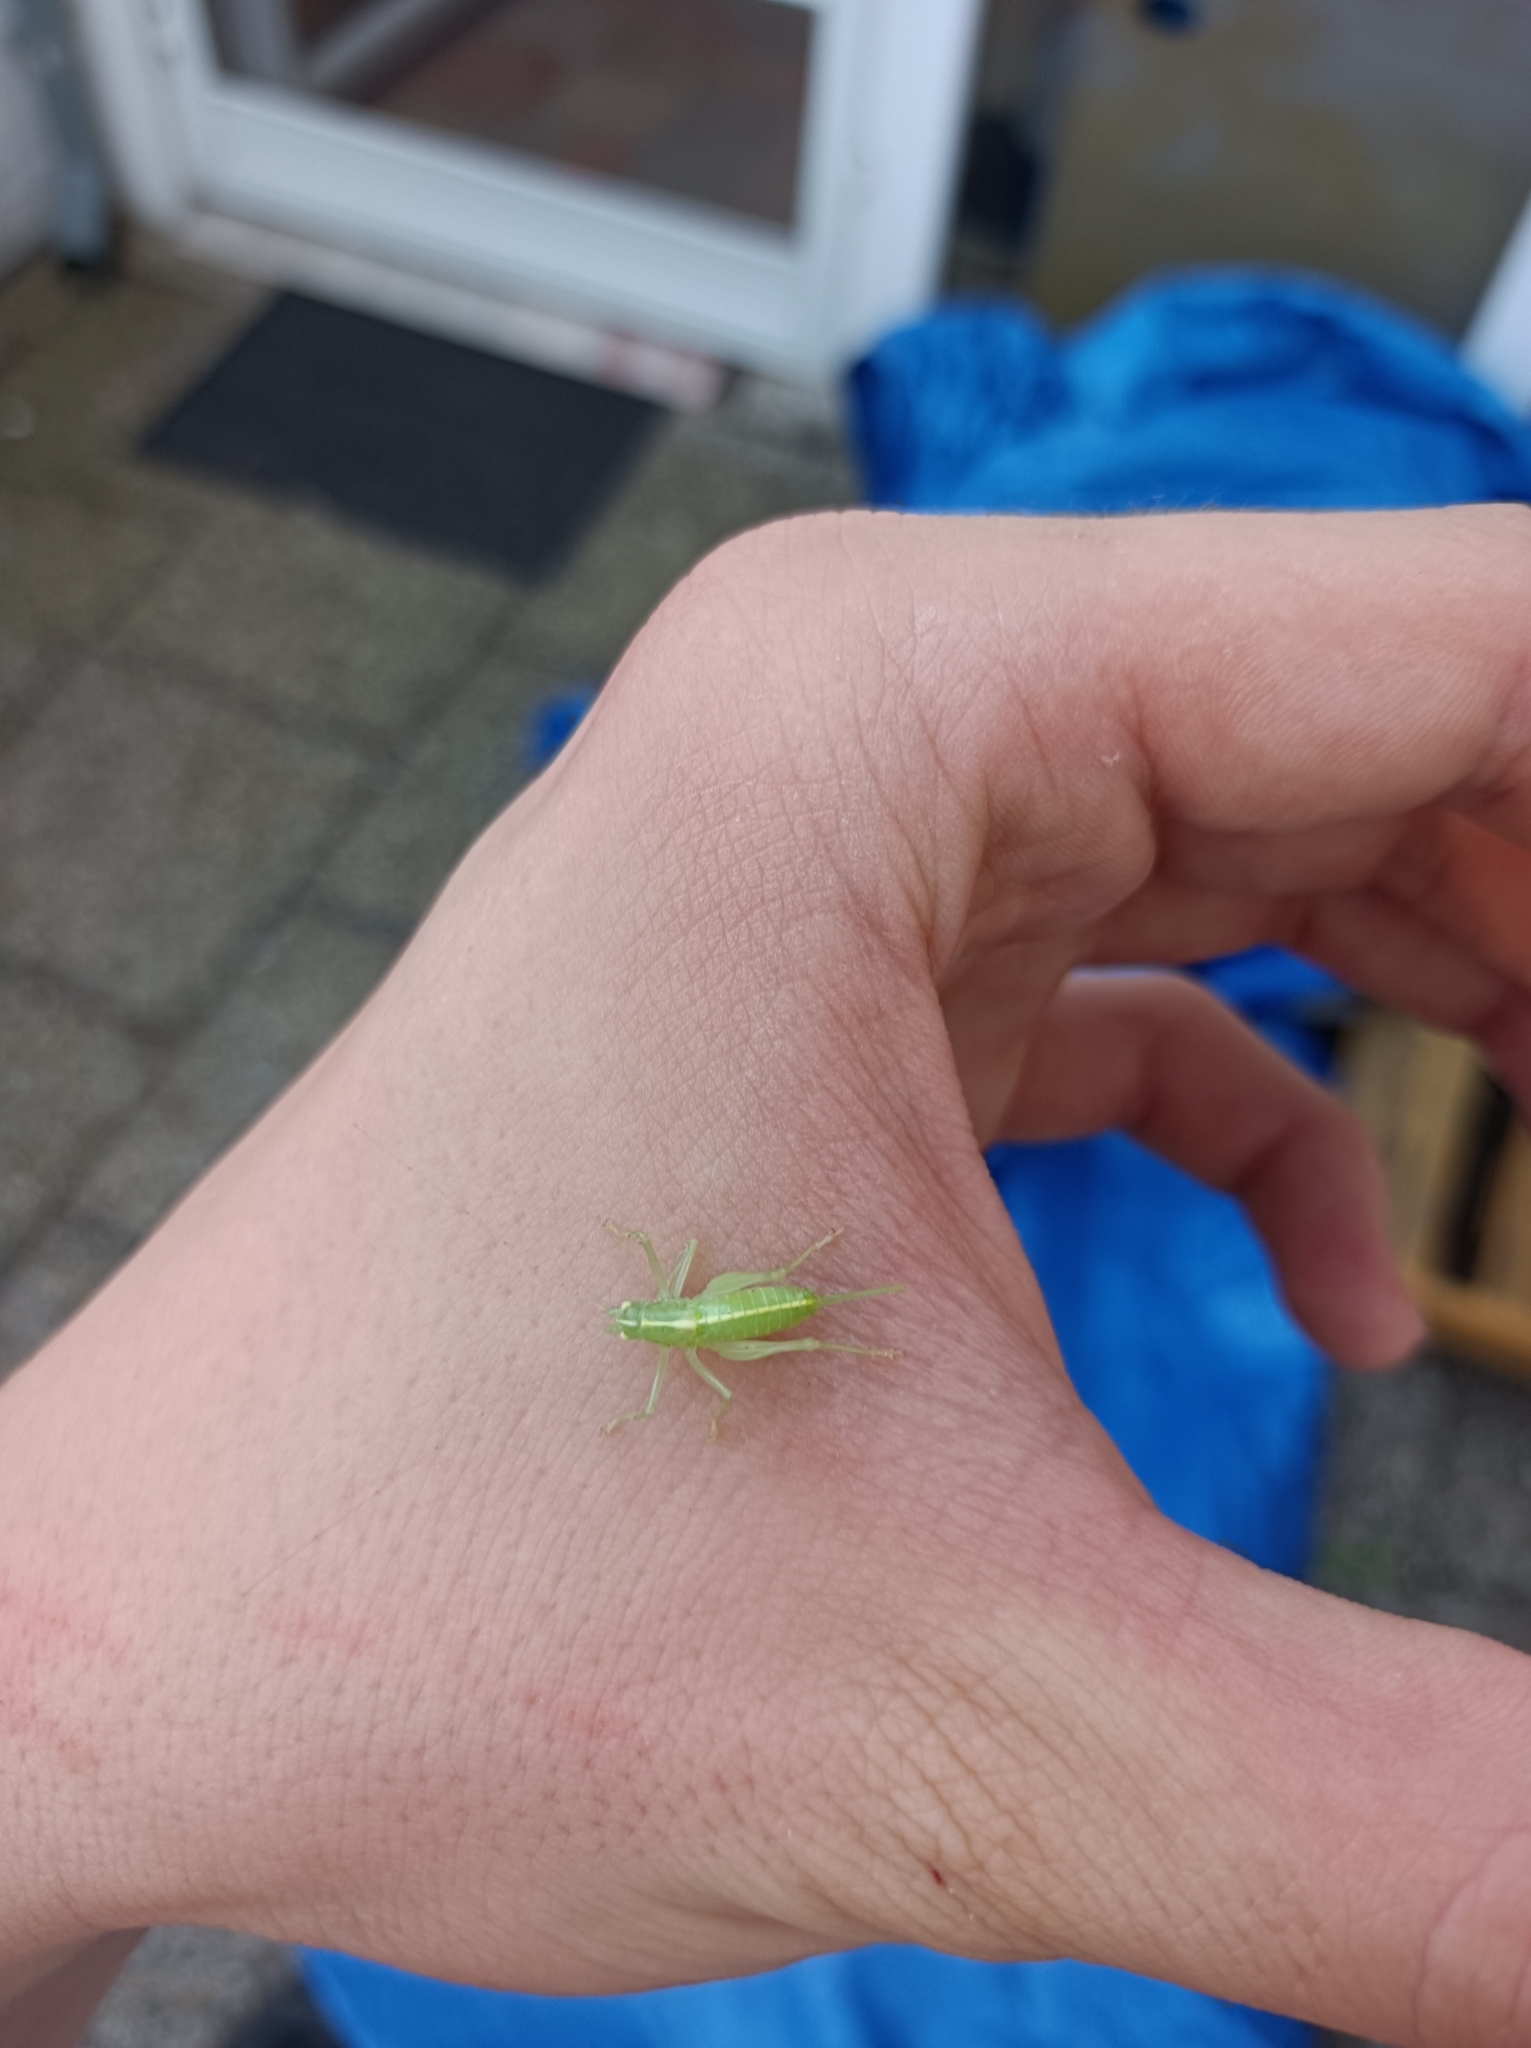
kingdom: Animalia
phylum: Arthropoda
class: Insecta
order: Orthoptera
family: Tettigoniidae
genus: Meconema
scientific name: Meconema meridionale
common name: Southern oak bush-cricket
